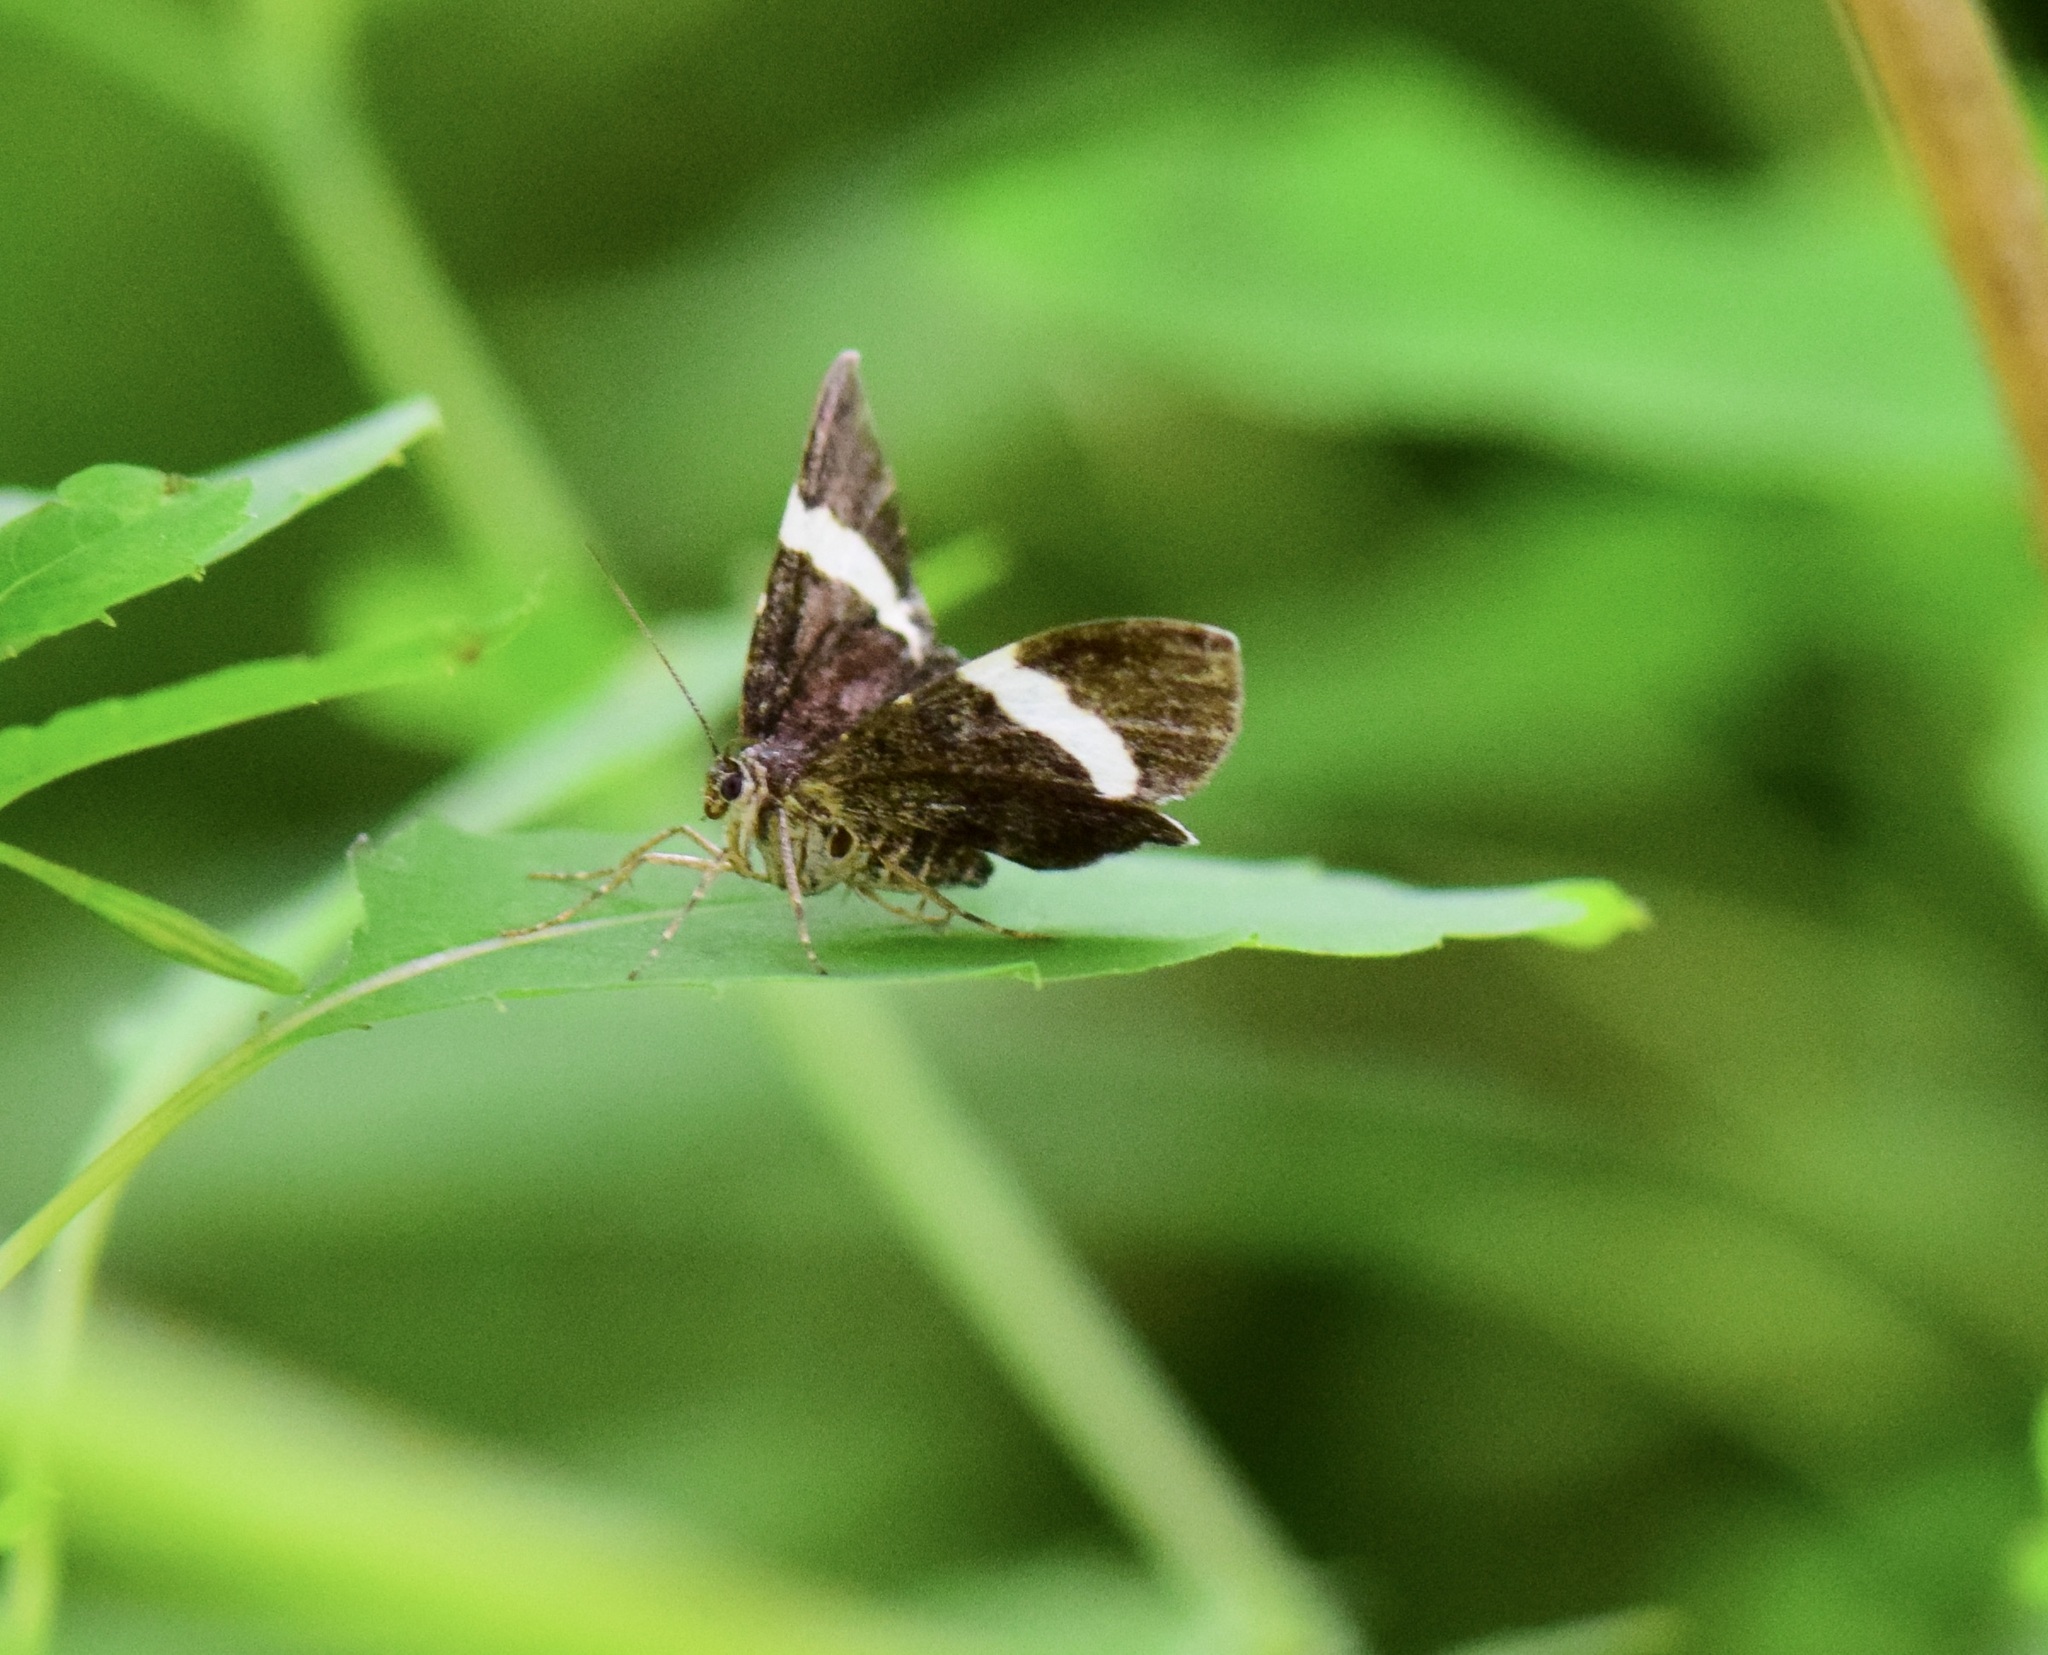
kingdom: Animalia
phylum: Arthropoda
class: Insecta
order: Lepidoptera
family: Geometridae
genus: Trichodezia
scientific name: Trichodezia albovittata
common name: White striped black
